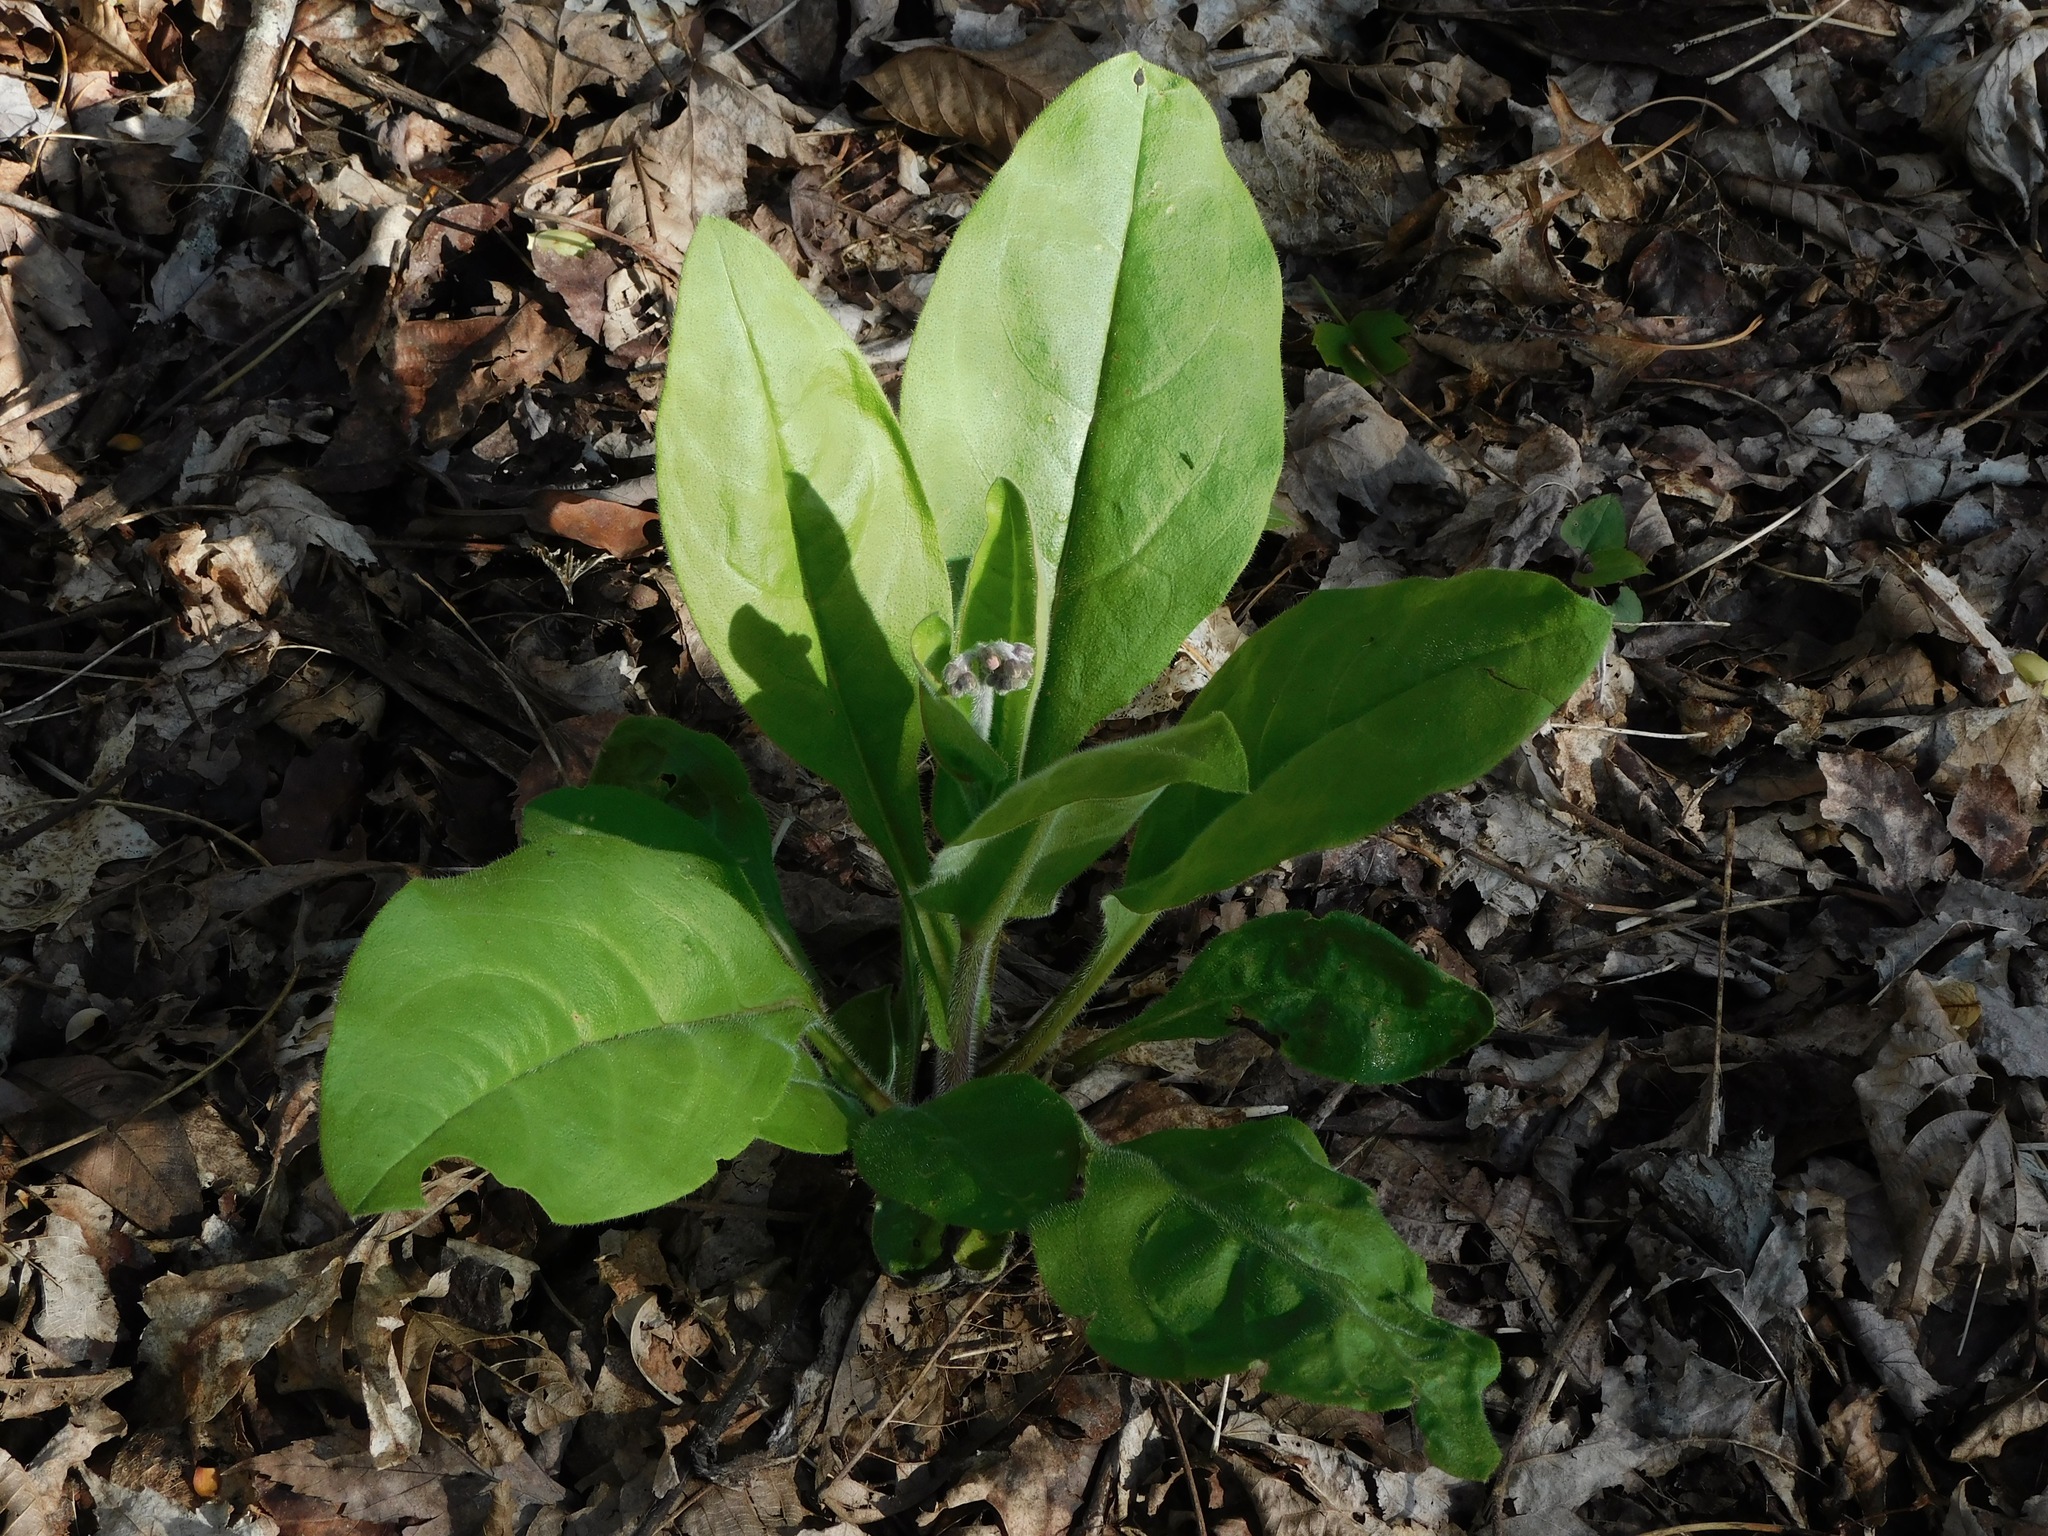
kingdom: Plantae
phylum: Tracheophyta
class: Magnoliopsida
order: Boraginales
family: Boraginaceae
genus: Andersonglossum
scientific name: Andersonglossum virginianum
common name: Wild comfrey
